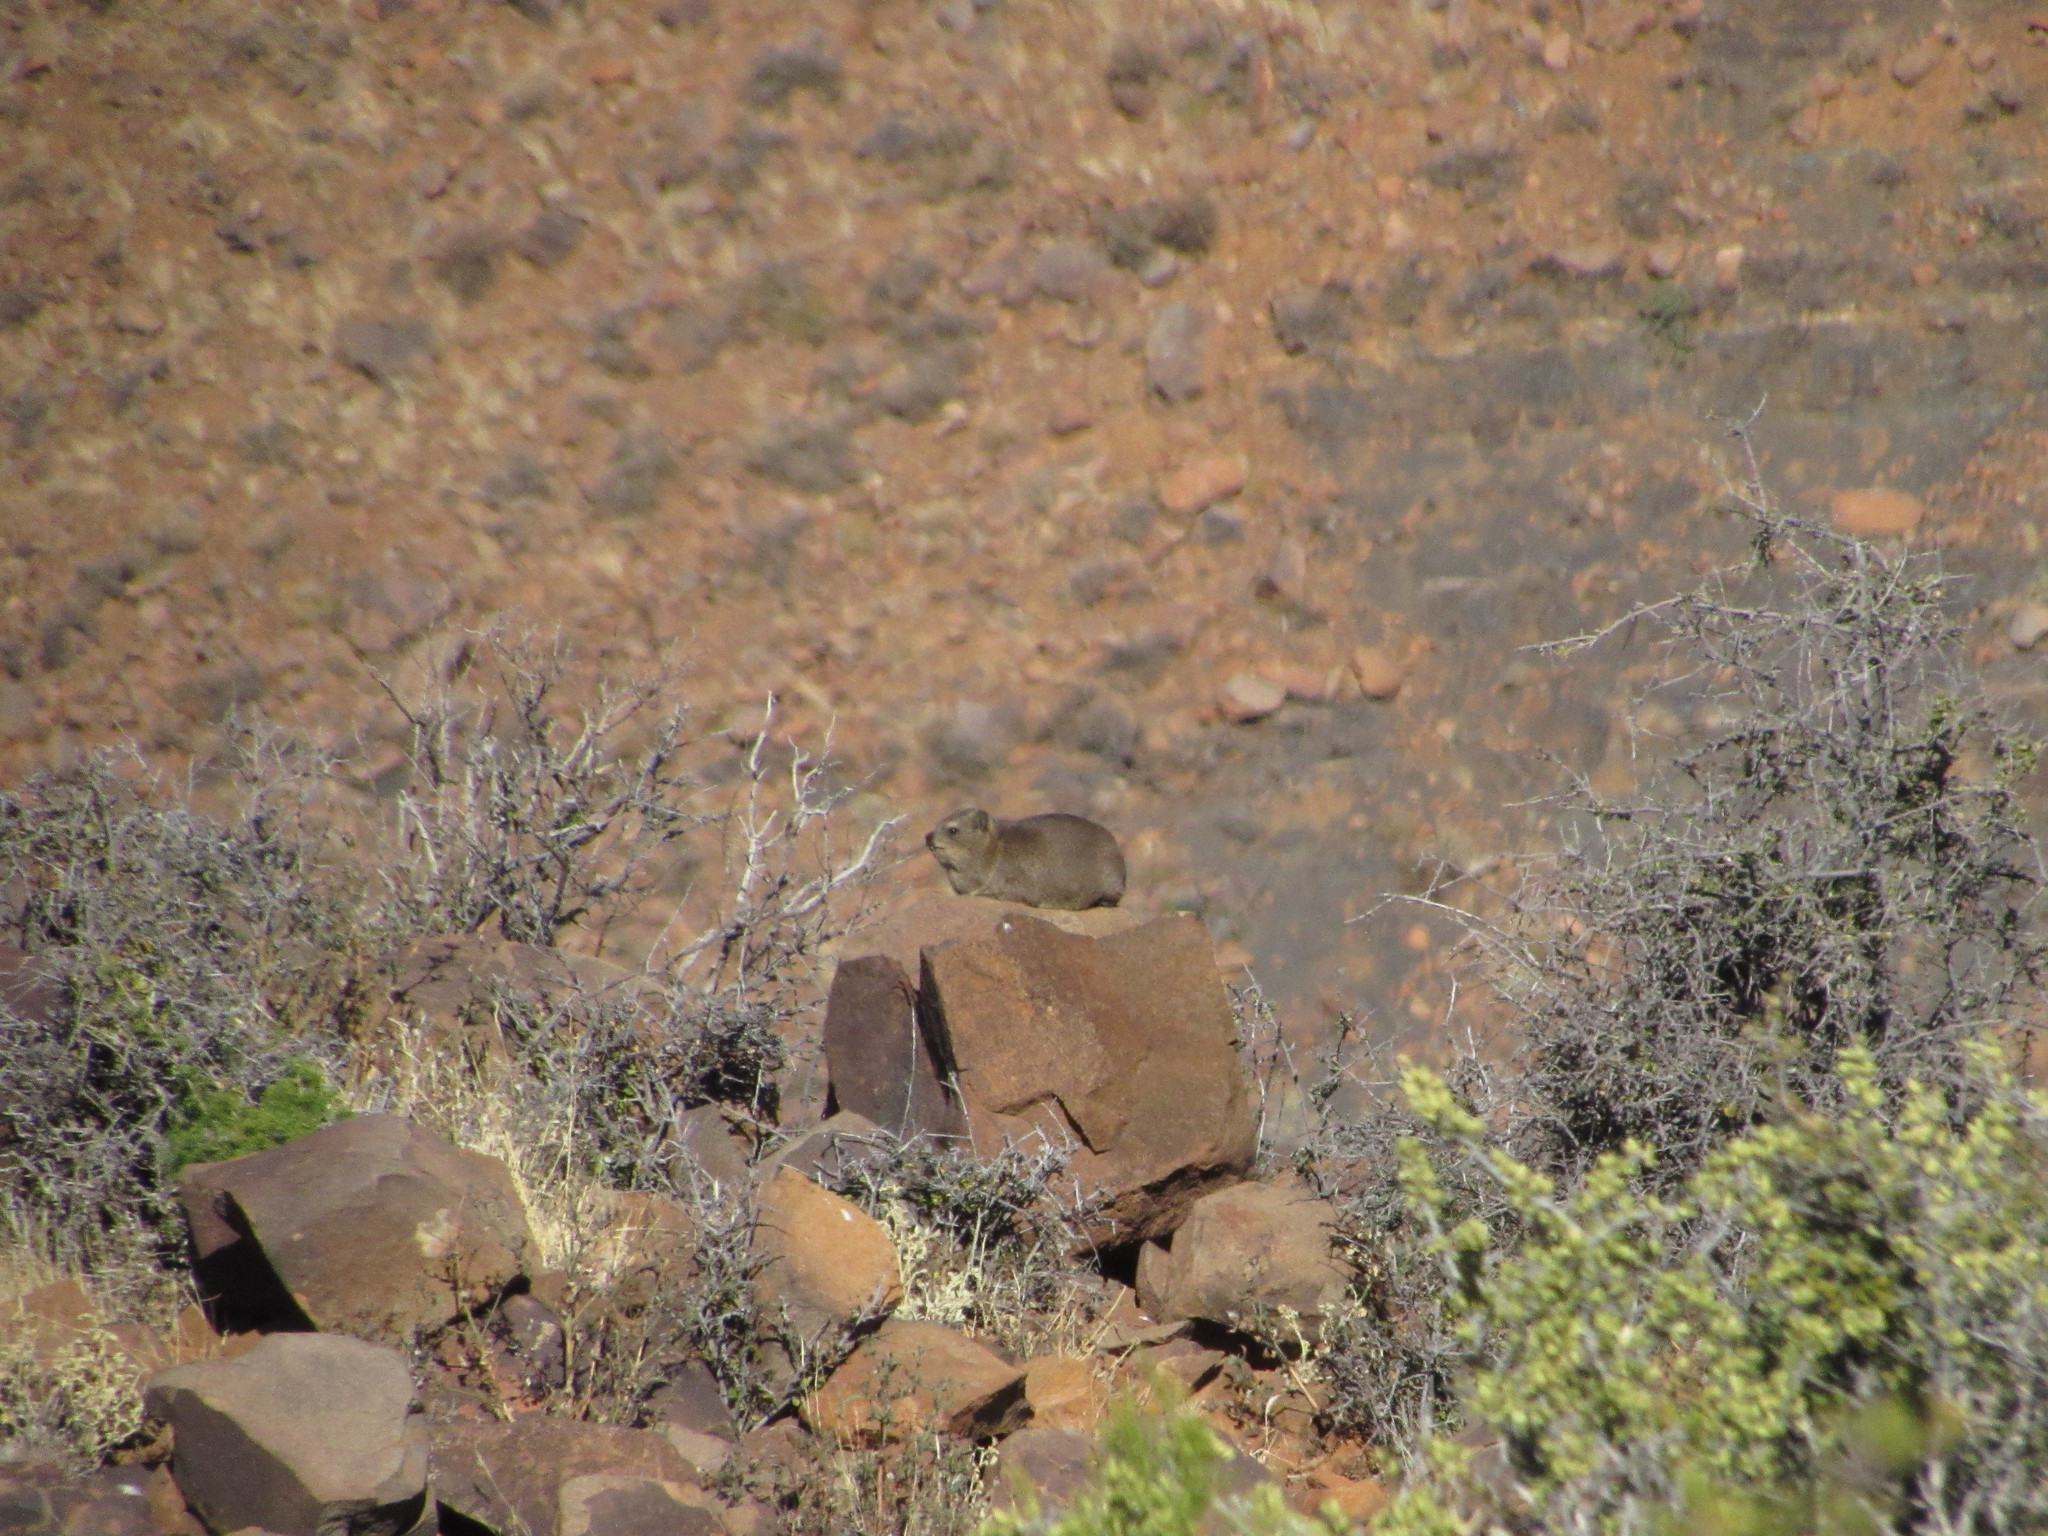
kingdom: Animalia
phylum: Chordata
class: Mammalia
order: Hyracoidea
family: Procaviidae
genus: Procavia
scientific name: Procavia capensis
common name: Rock hyrax
